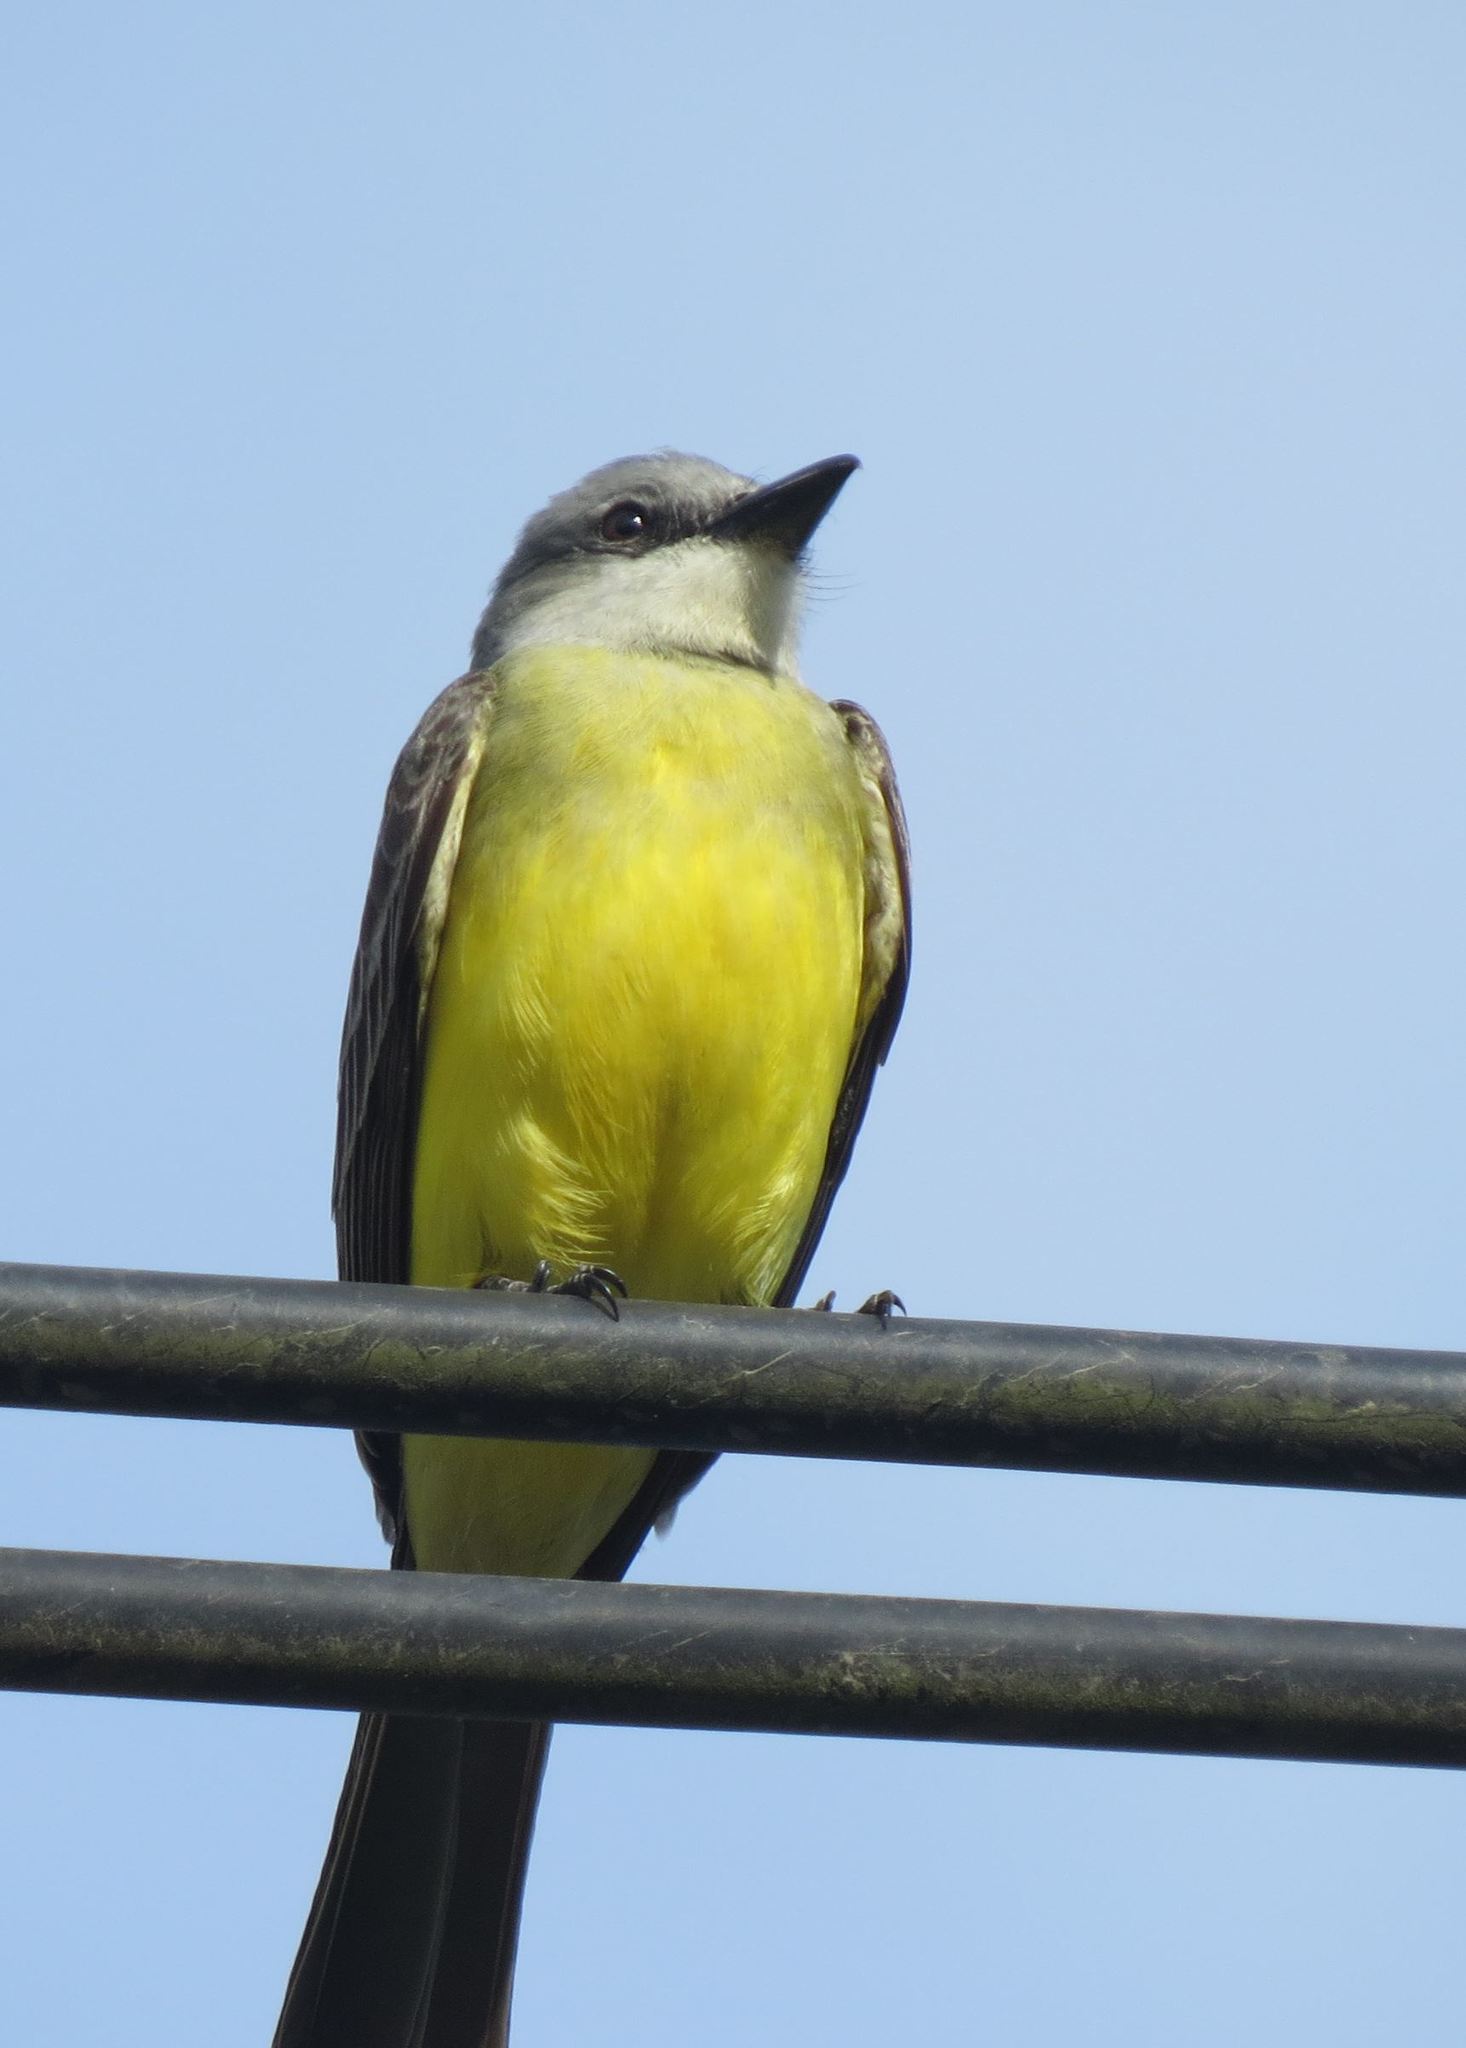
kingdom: Animalia
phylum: Chordata
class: Aves
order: Passeriformes
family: Tyrannidae
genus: Tyrannus
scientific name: Tyrannus melancholicus
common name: Tropical kingbird
